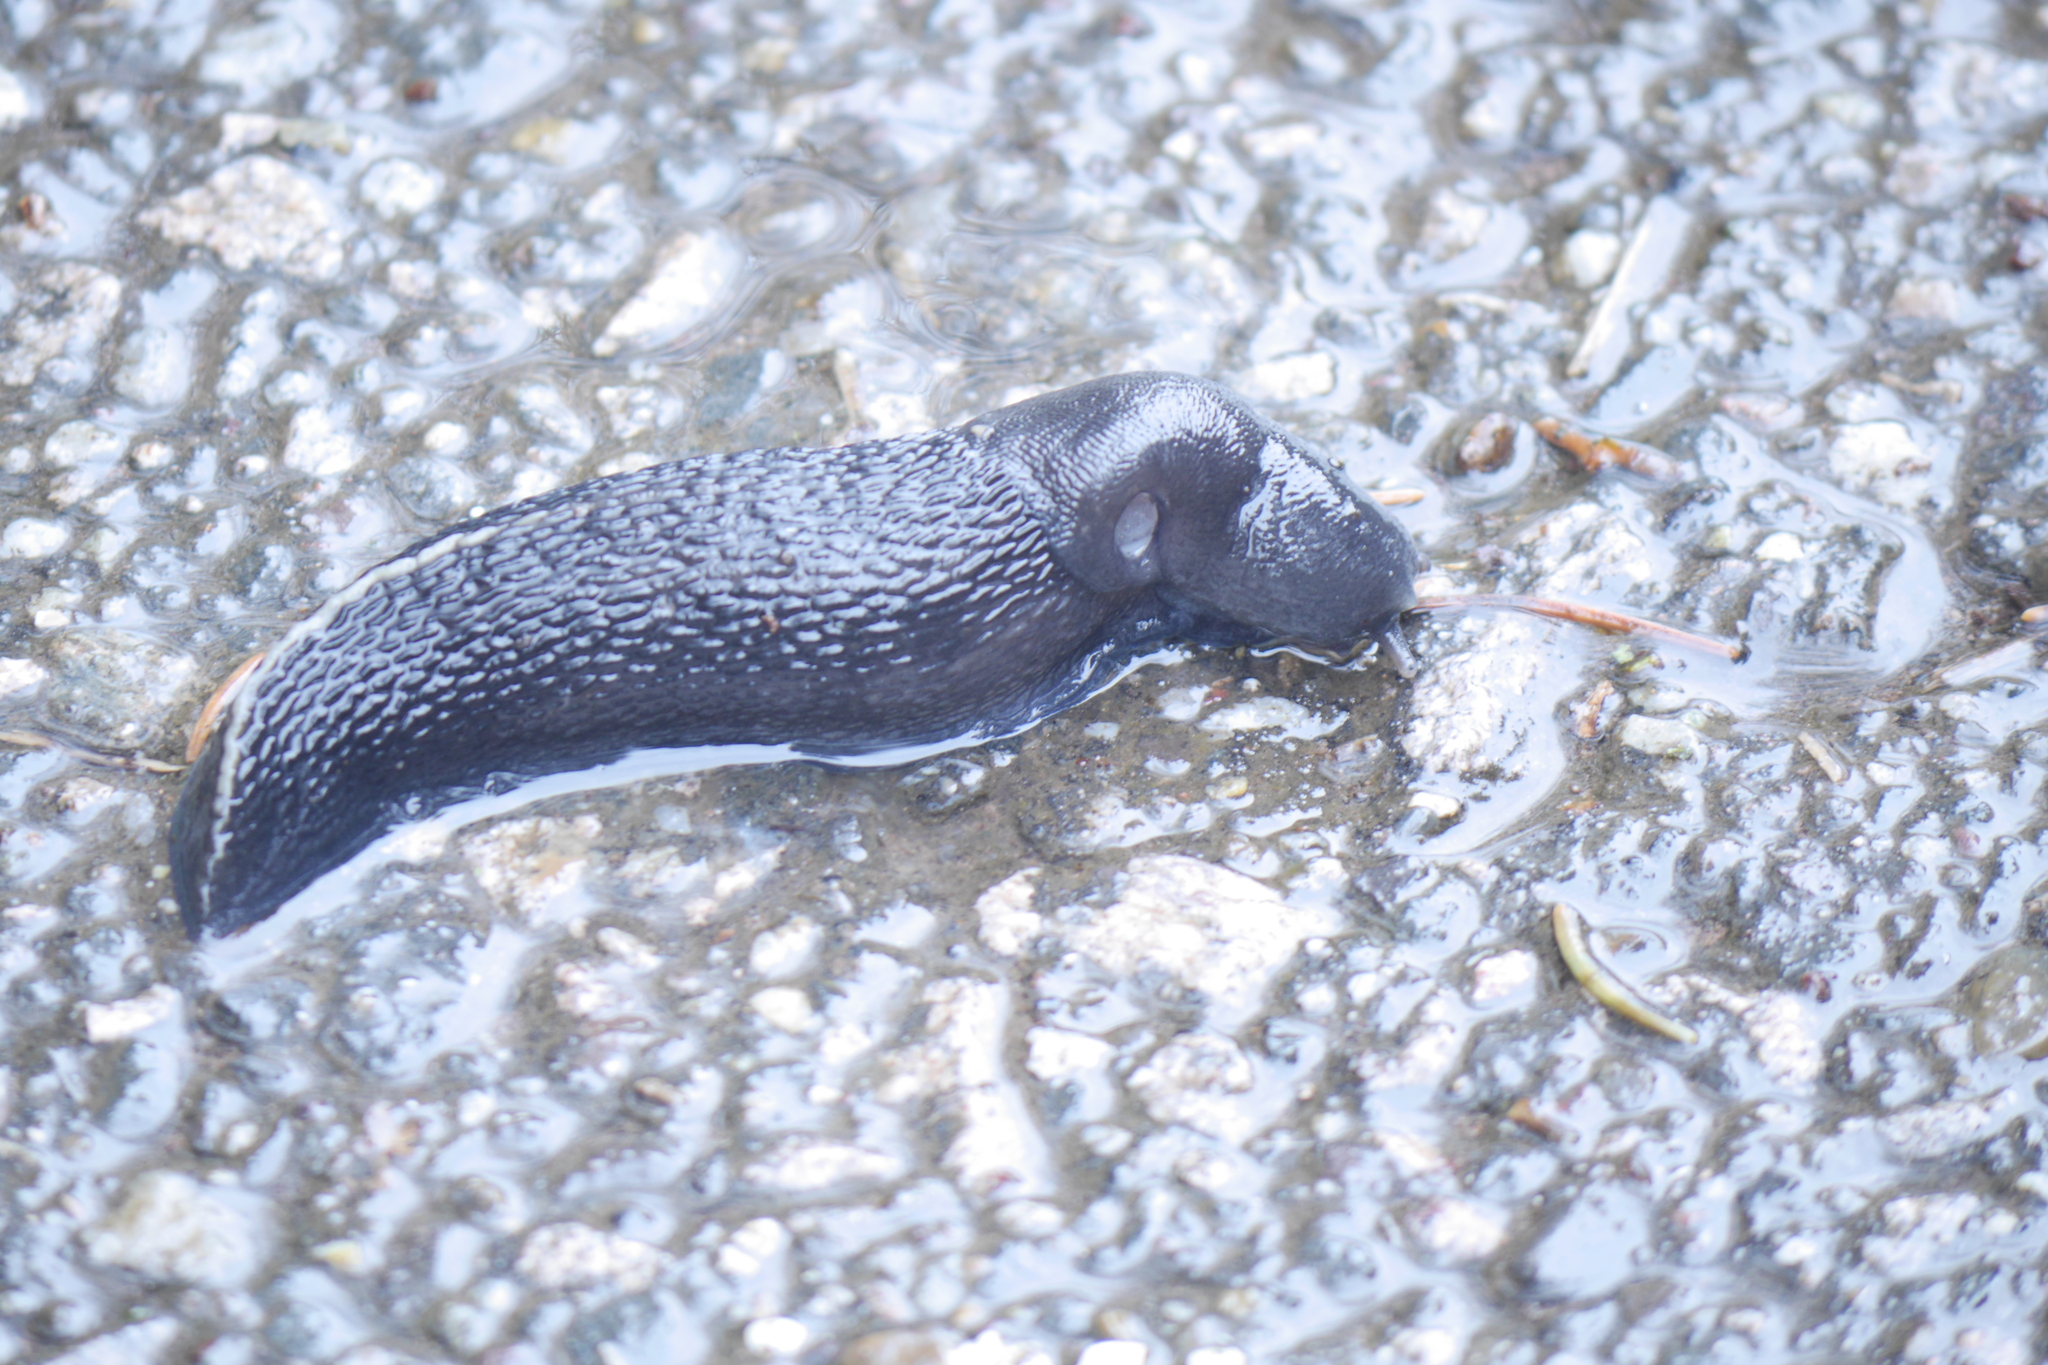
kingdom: Animalia
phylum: Mollusca
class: Gastropoda
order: Stylommatophora
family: Limacidae
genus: Limax
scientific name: Limax cinereoniger
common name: Ash-black slug
